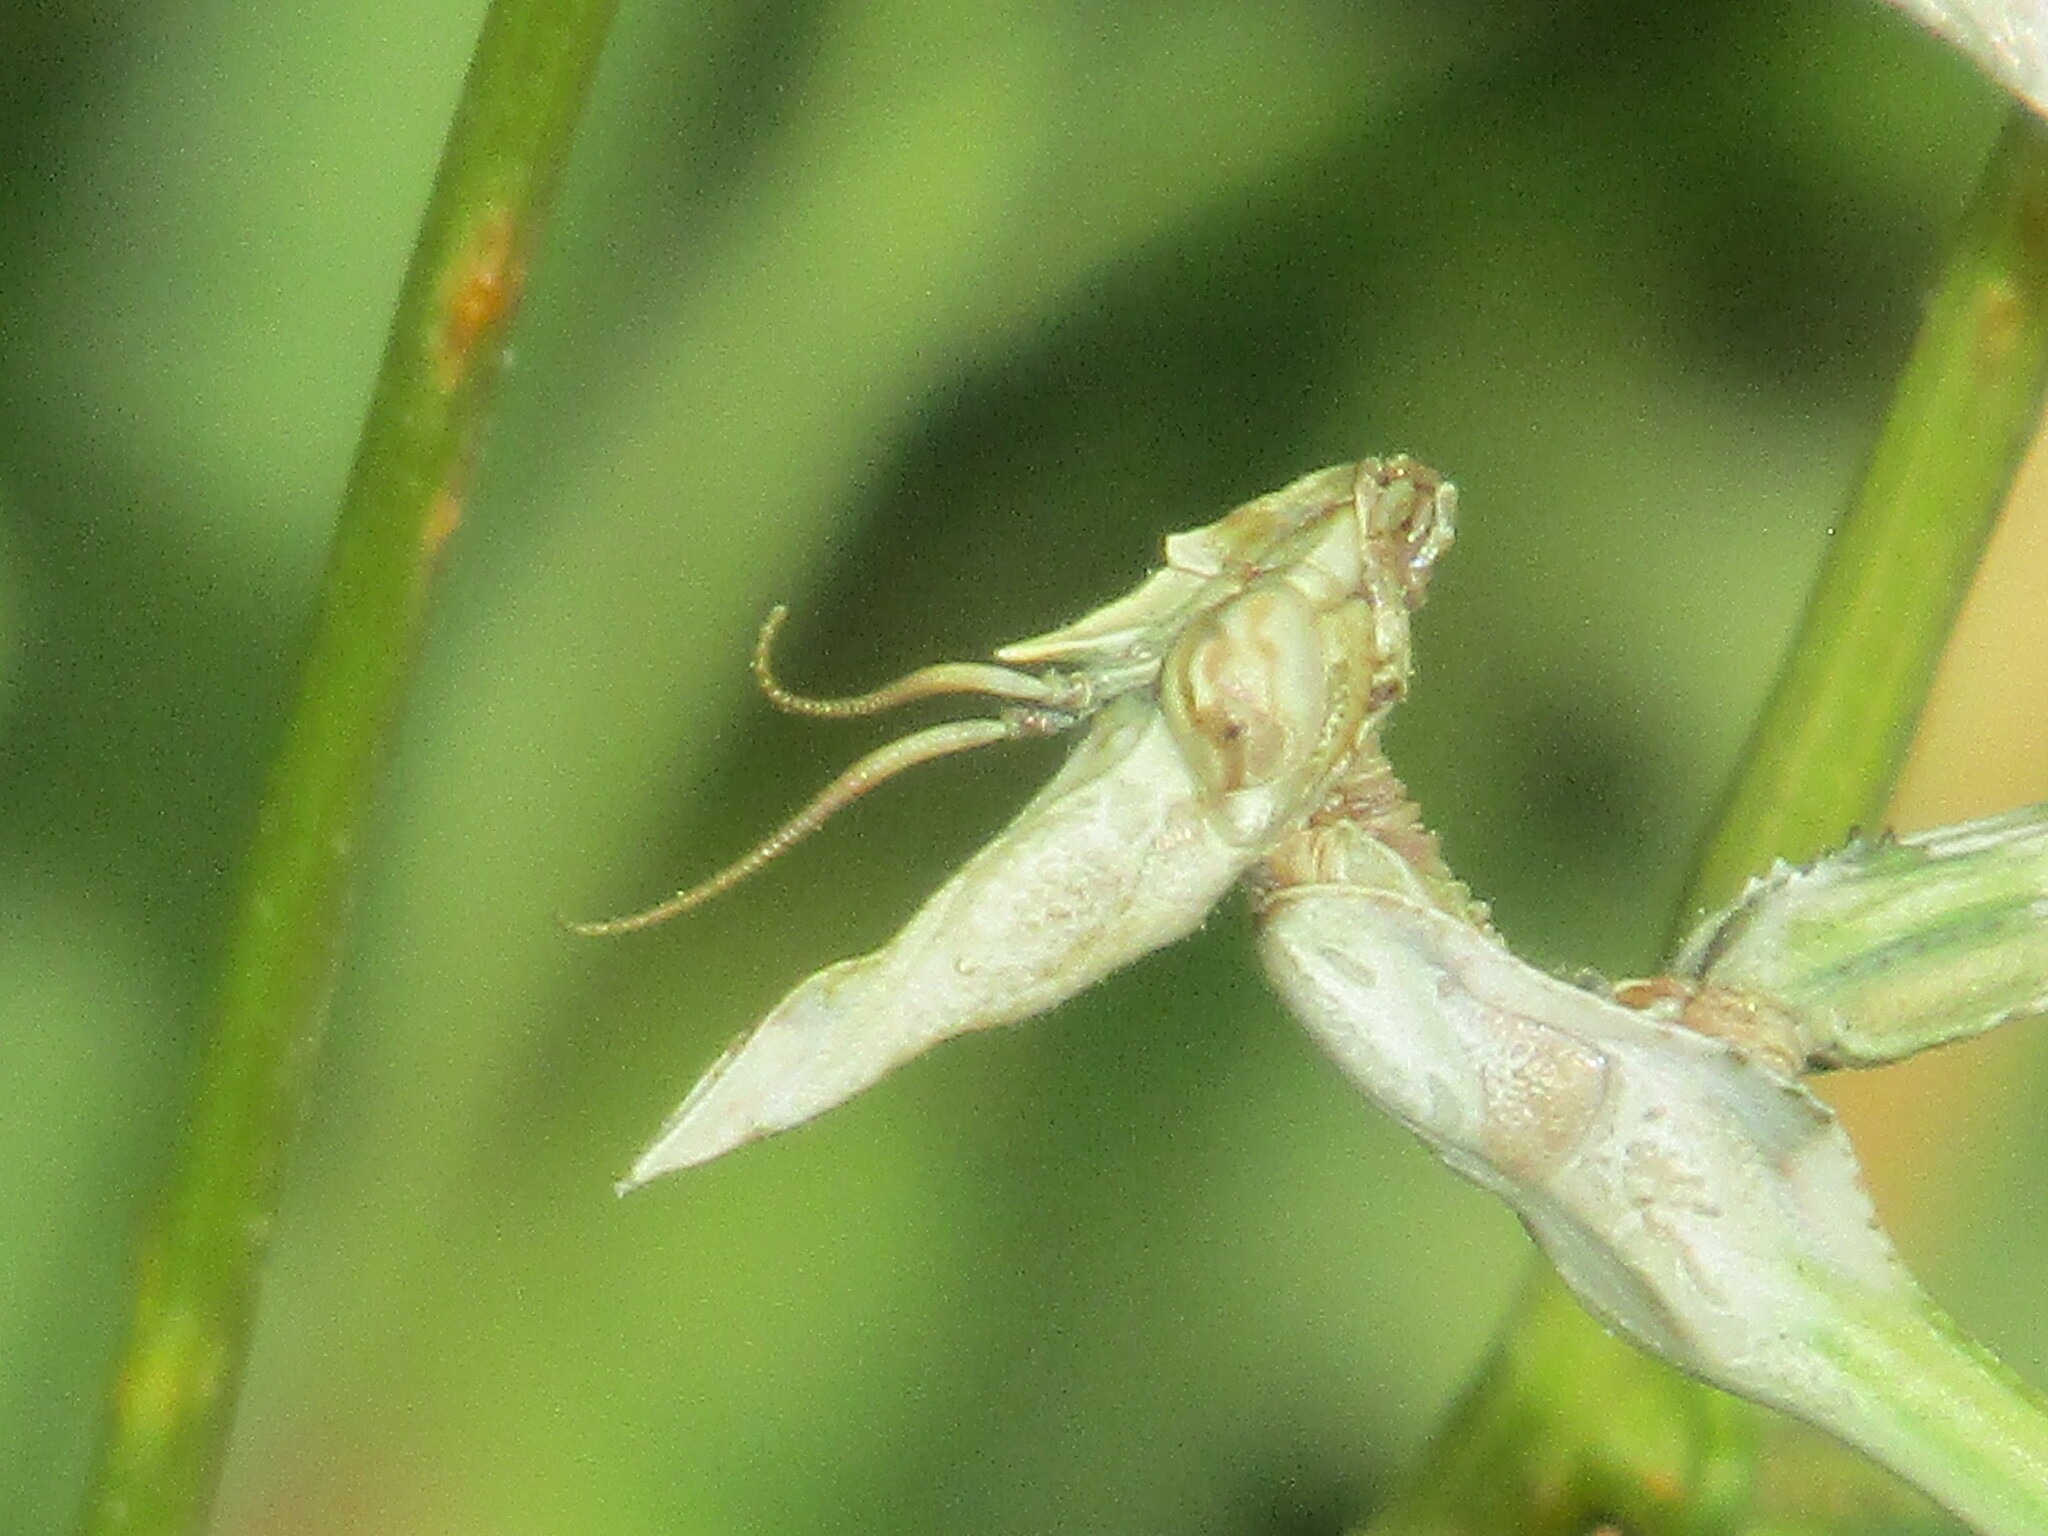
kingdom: Animalia
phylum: Arthropoda
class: Insecta
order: Mantodea
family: Empusidae
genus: Empusa
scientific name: Empusa fasciata
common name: Devil's mare
